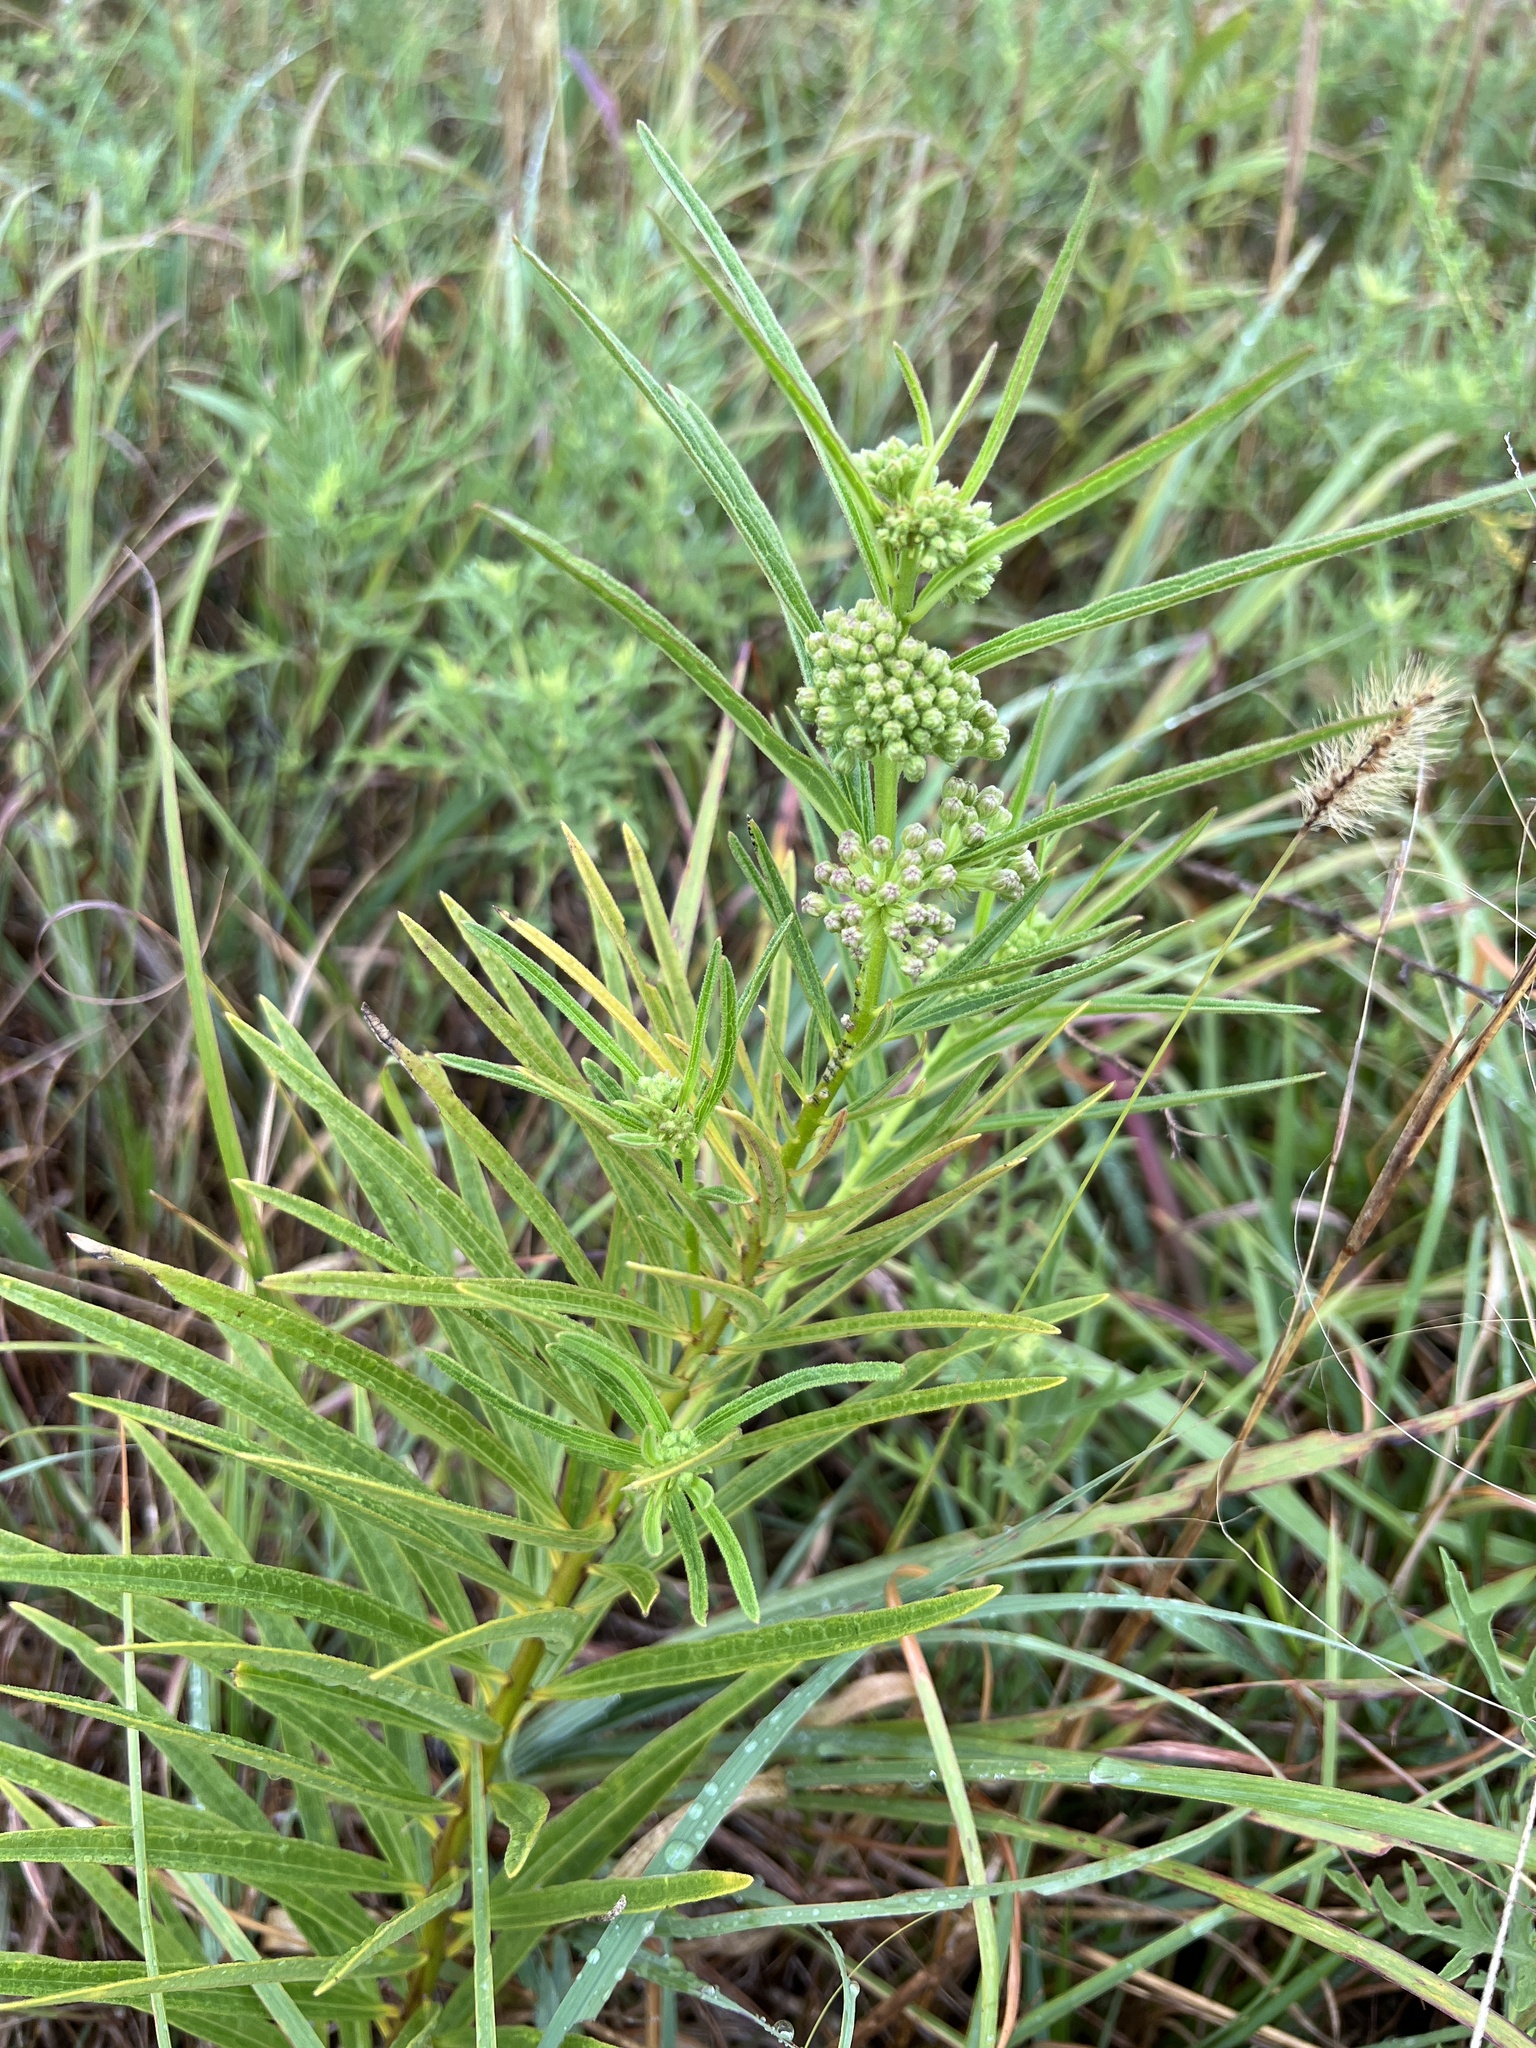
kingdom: Plantae
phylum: Tracheophyta
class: Magnoliopsida
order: Gentianales
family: Apocynaceae
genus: Asclepias
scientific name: Asclepias hirtella
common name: Prairie milkweed
